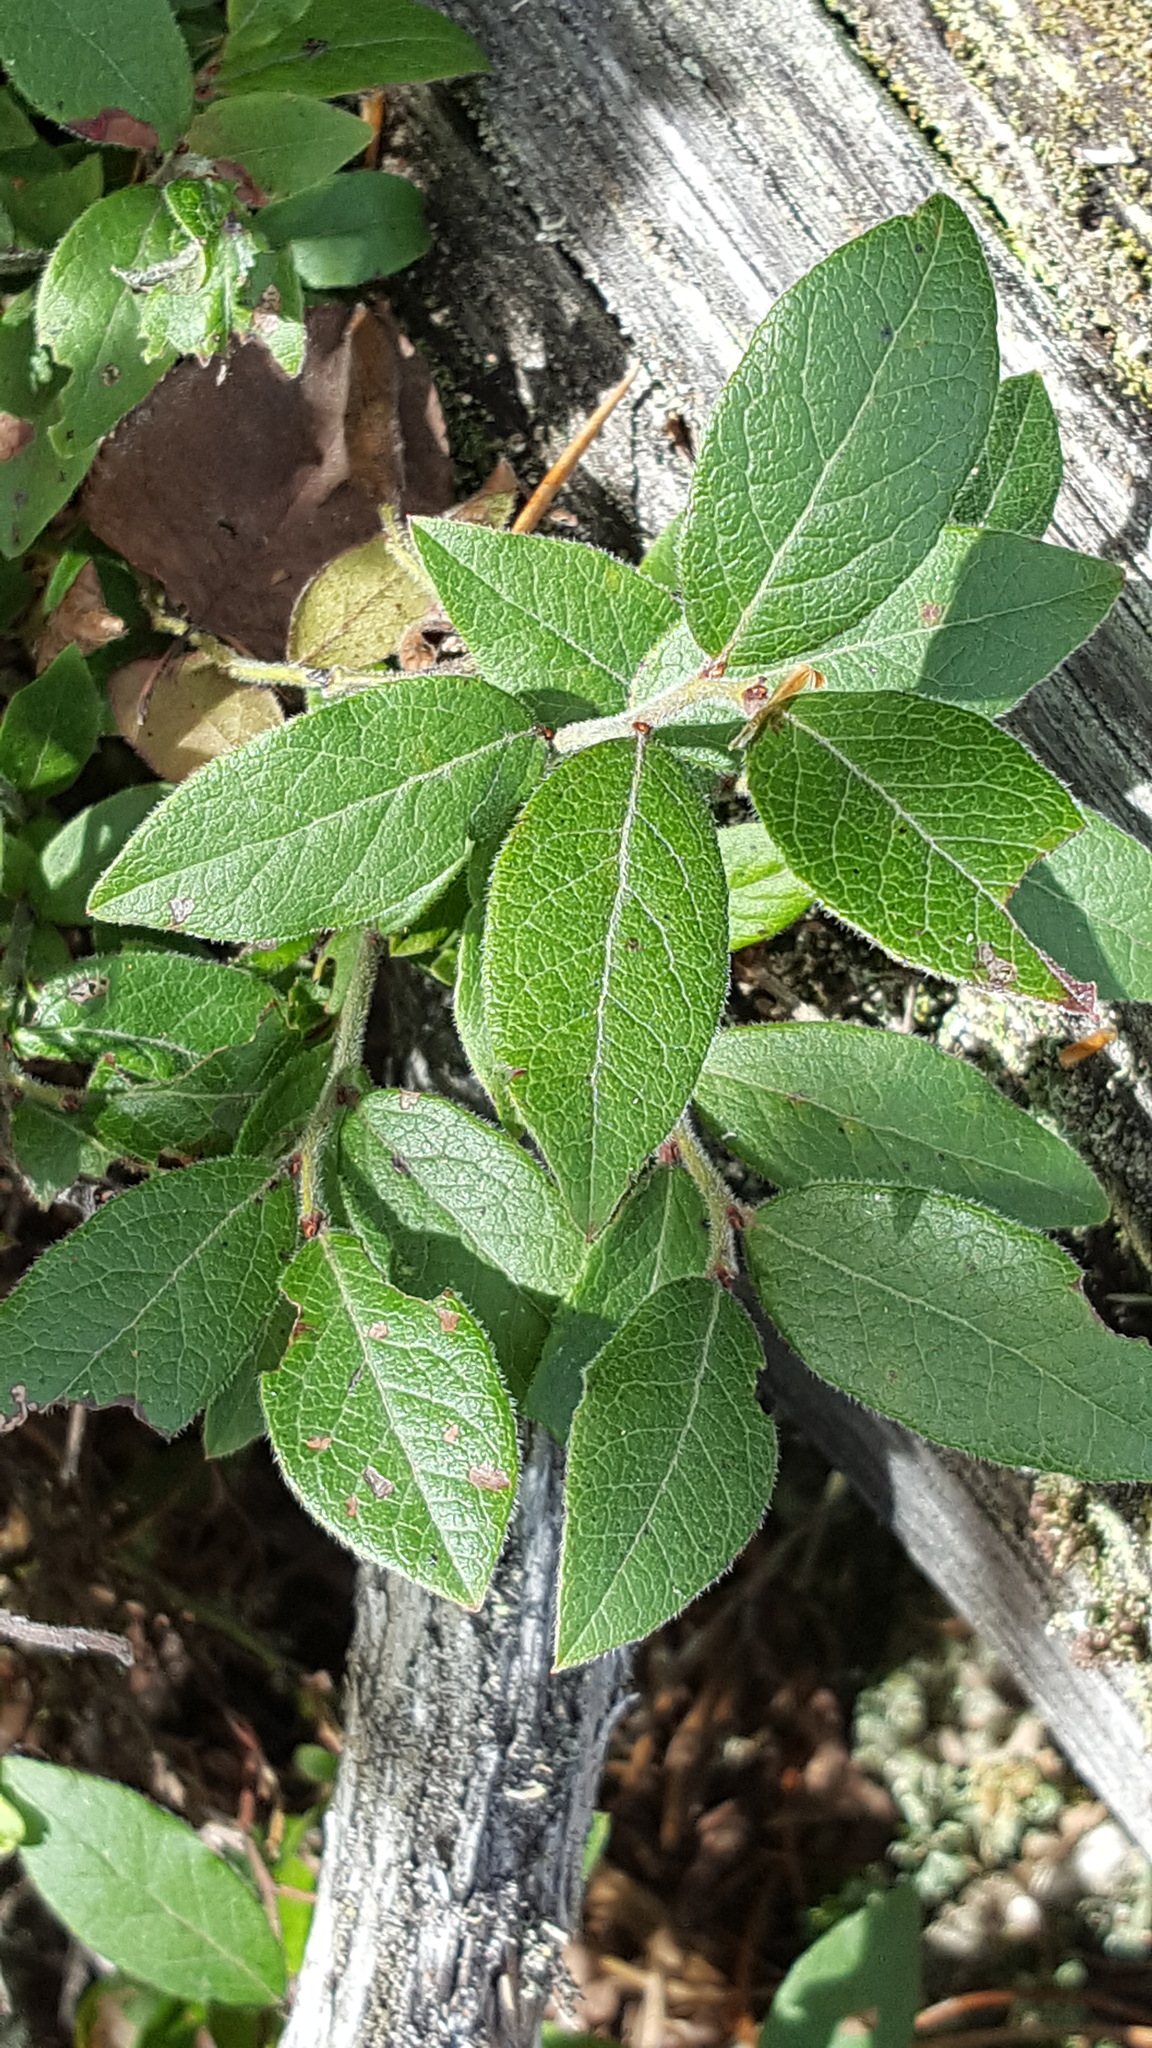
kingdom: Plantae
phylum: Tracheophyta
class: Magnoliopsida
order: Ericales
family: Ericaceae
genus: Vaccinium
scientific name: Vaccinium myrtilloides
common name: Canada blueberry
